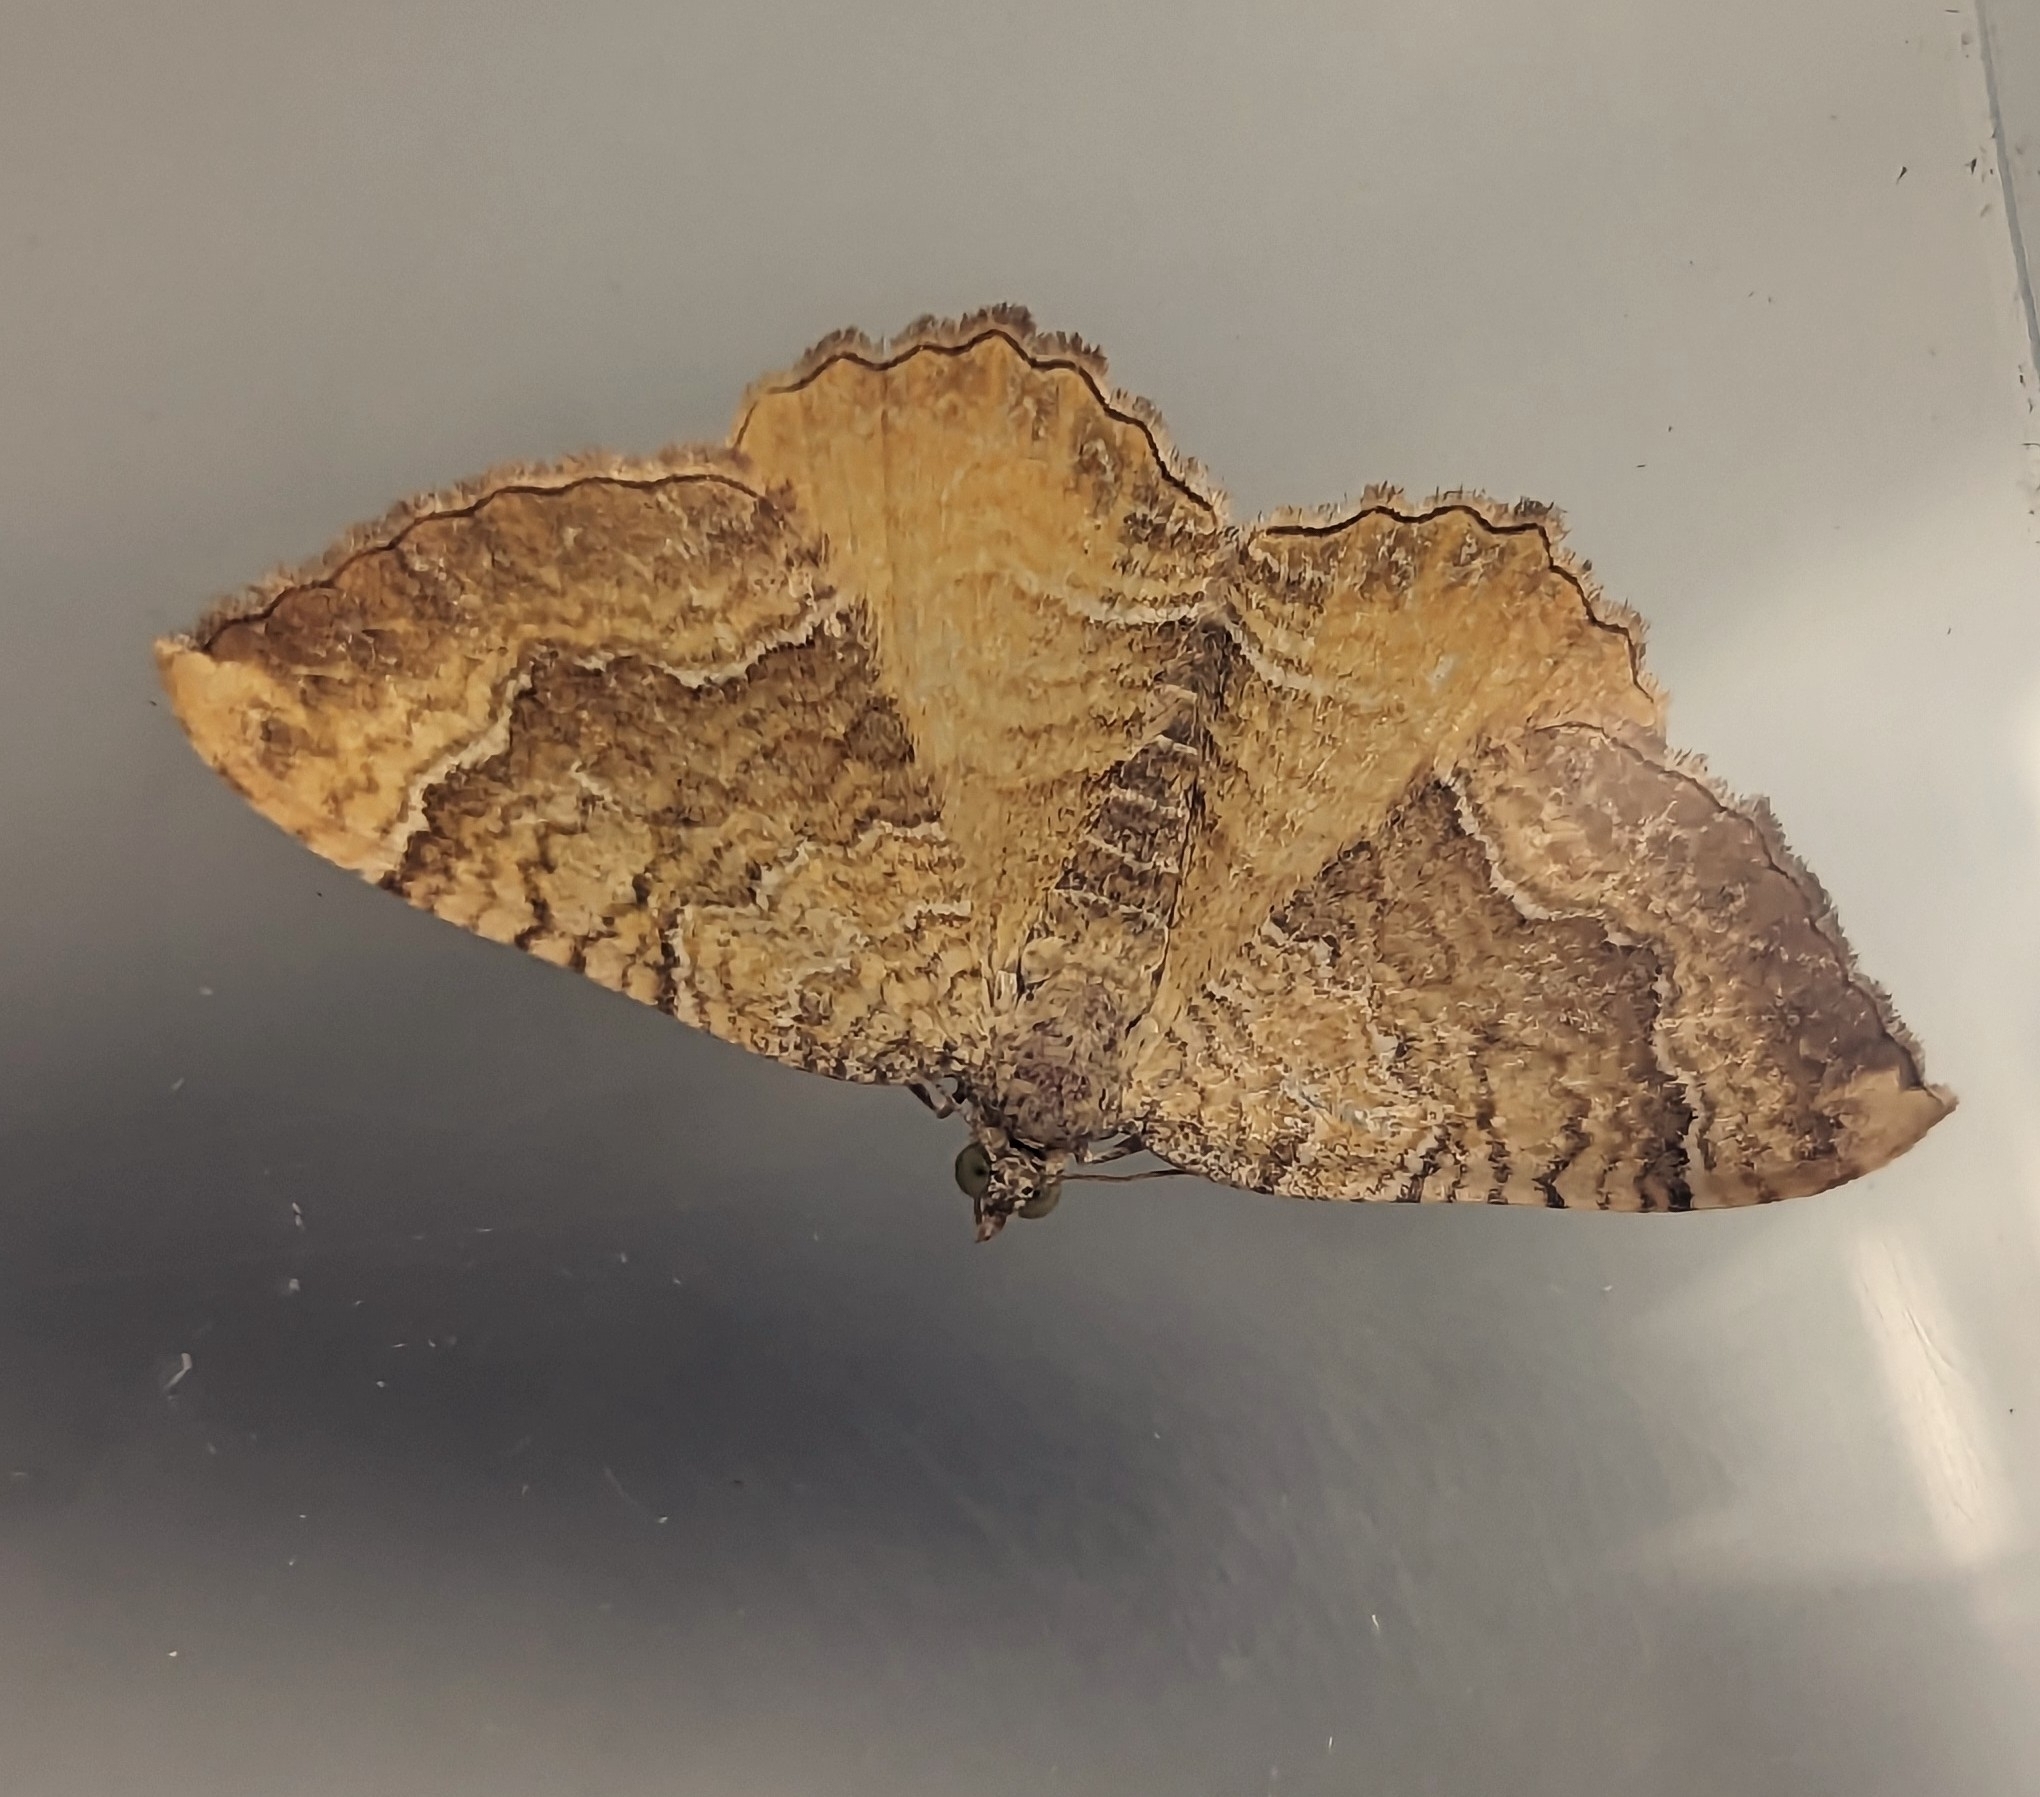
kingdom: Animalia
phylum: Arthropoda
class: Insecta
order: Lepidoptera
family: Geometridae
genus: Camptogramma
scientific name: Camptogramma bilineata
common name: Yellow shell
